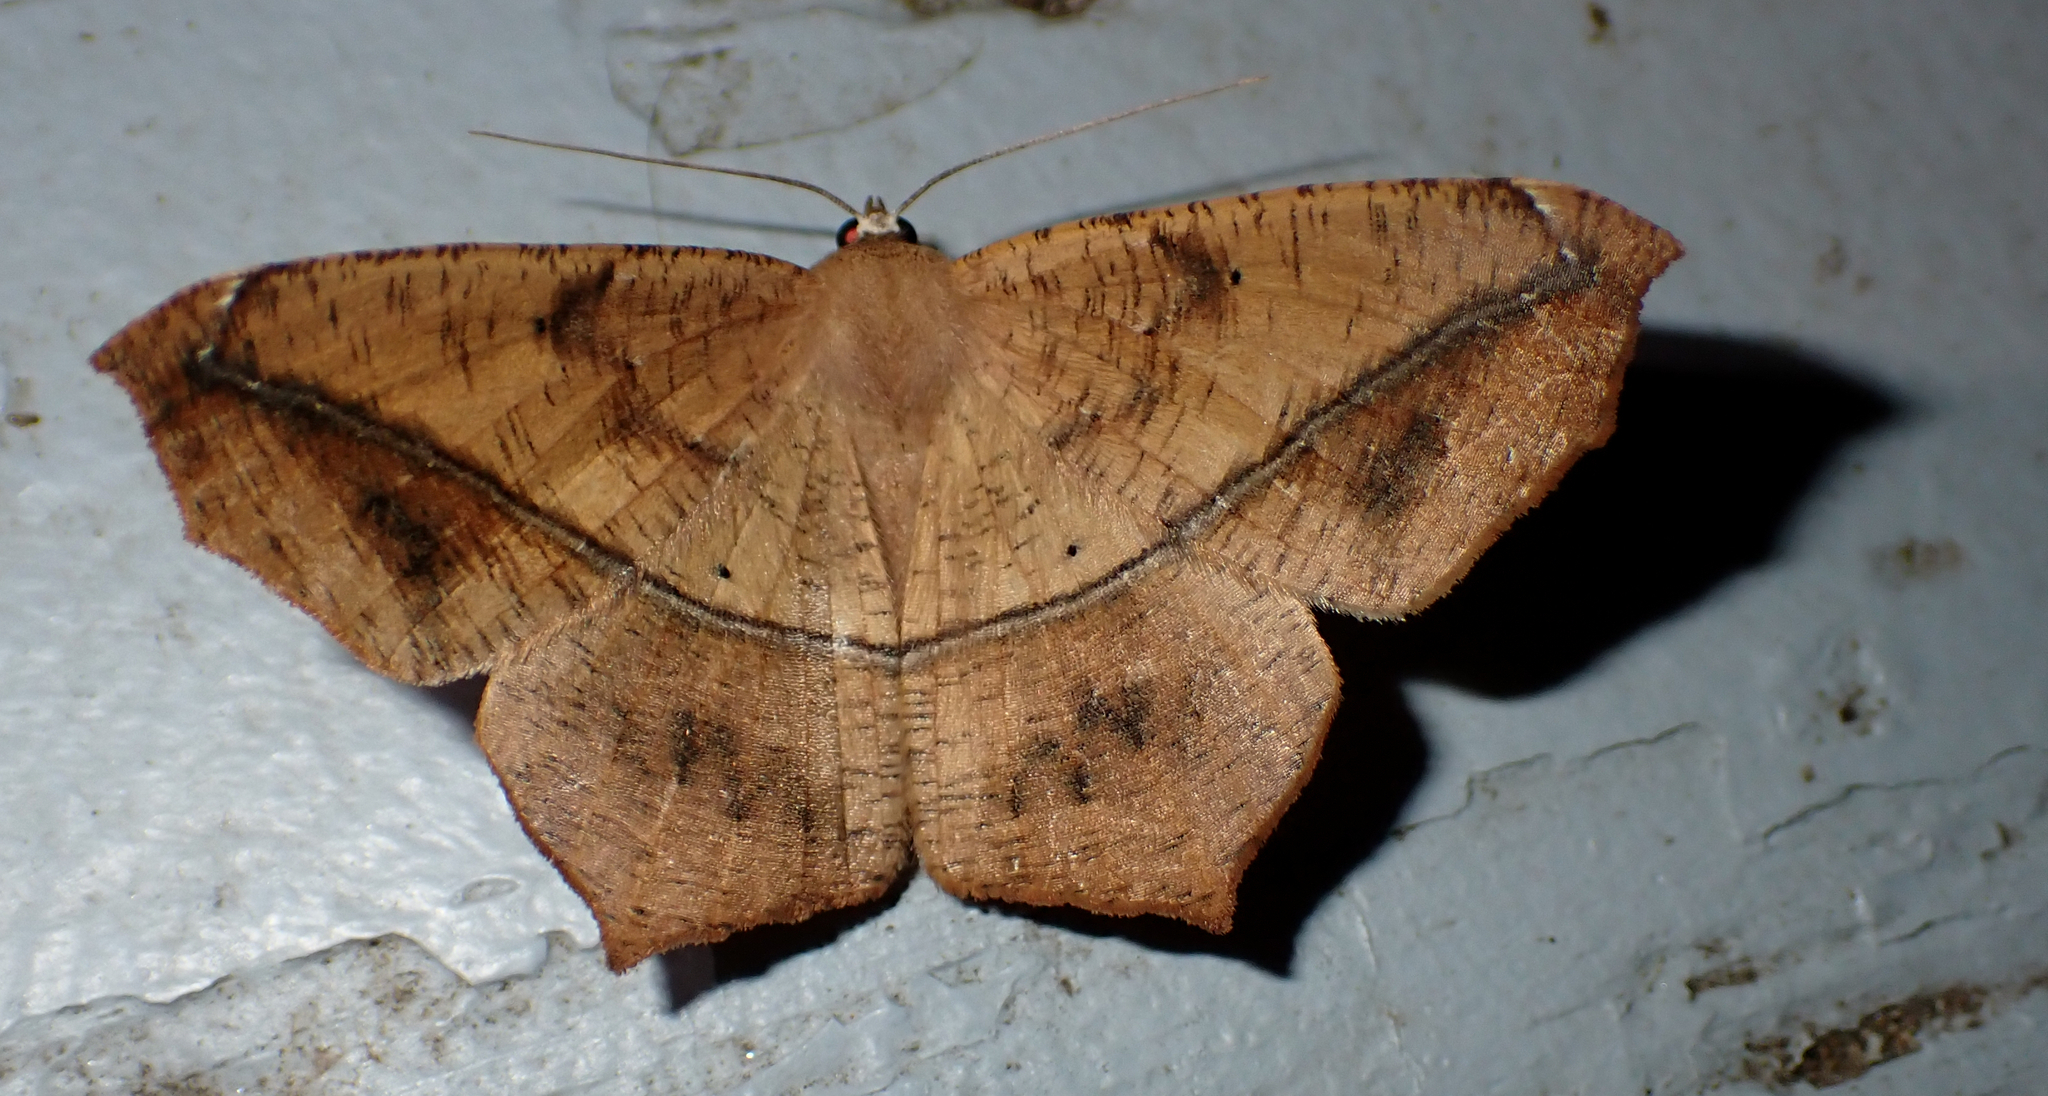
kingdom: Animalia
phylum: Arthropoda
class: Insecta
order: Lepidoptera
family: Geometridae
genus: Prochoerodes
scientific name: Prochoerodes lineola
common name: Large maple spanworm
